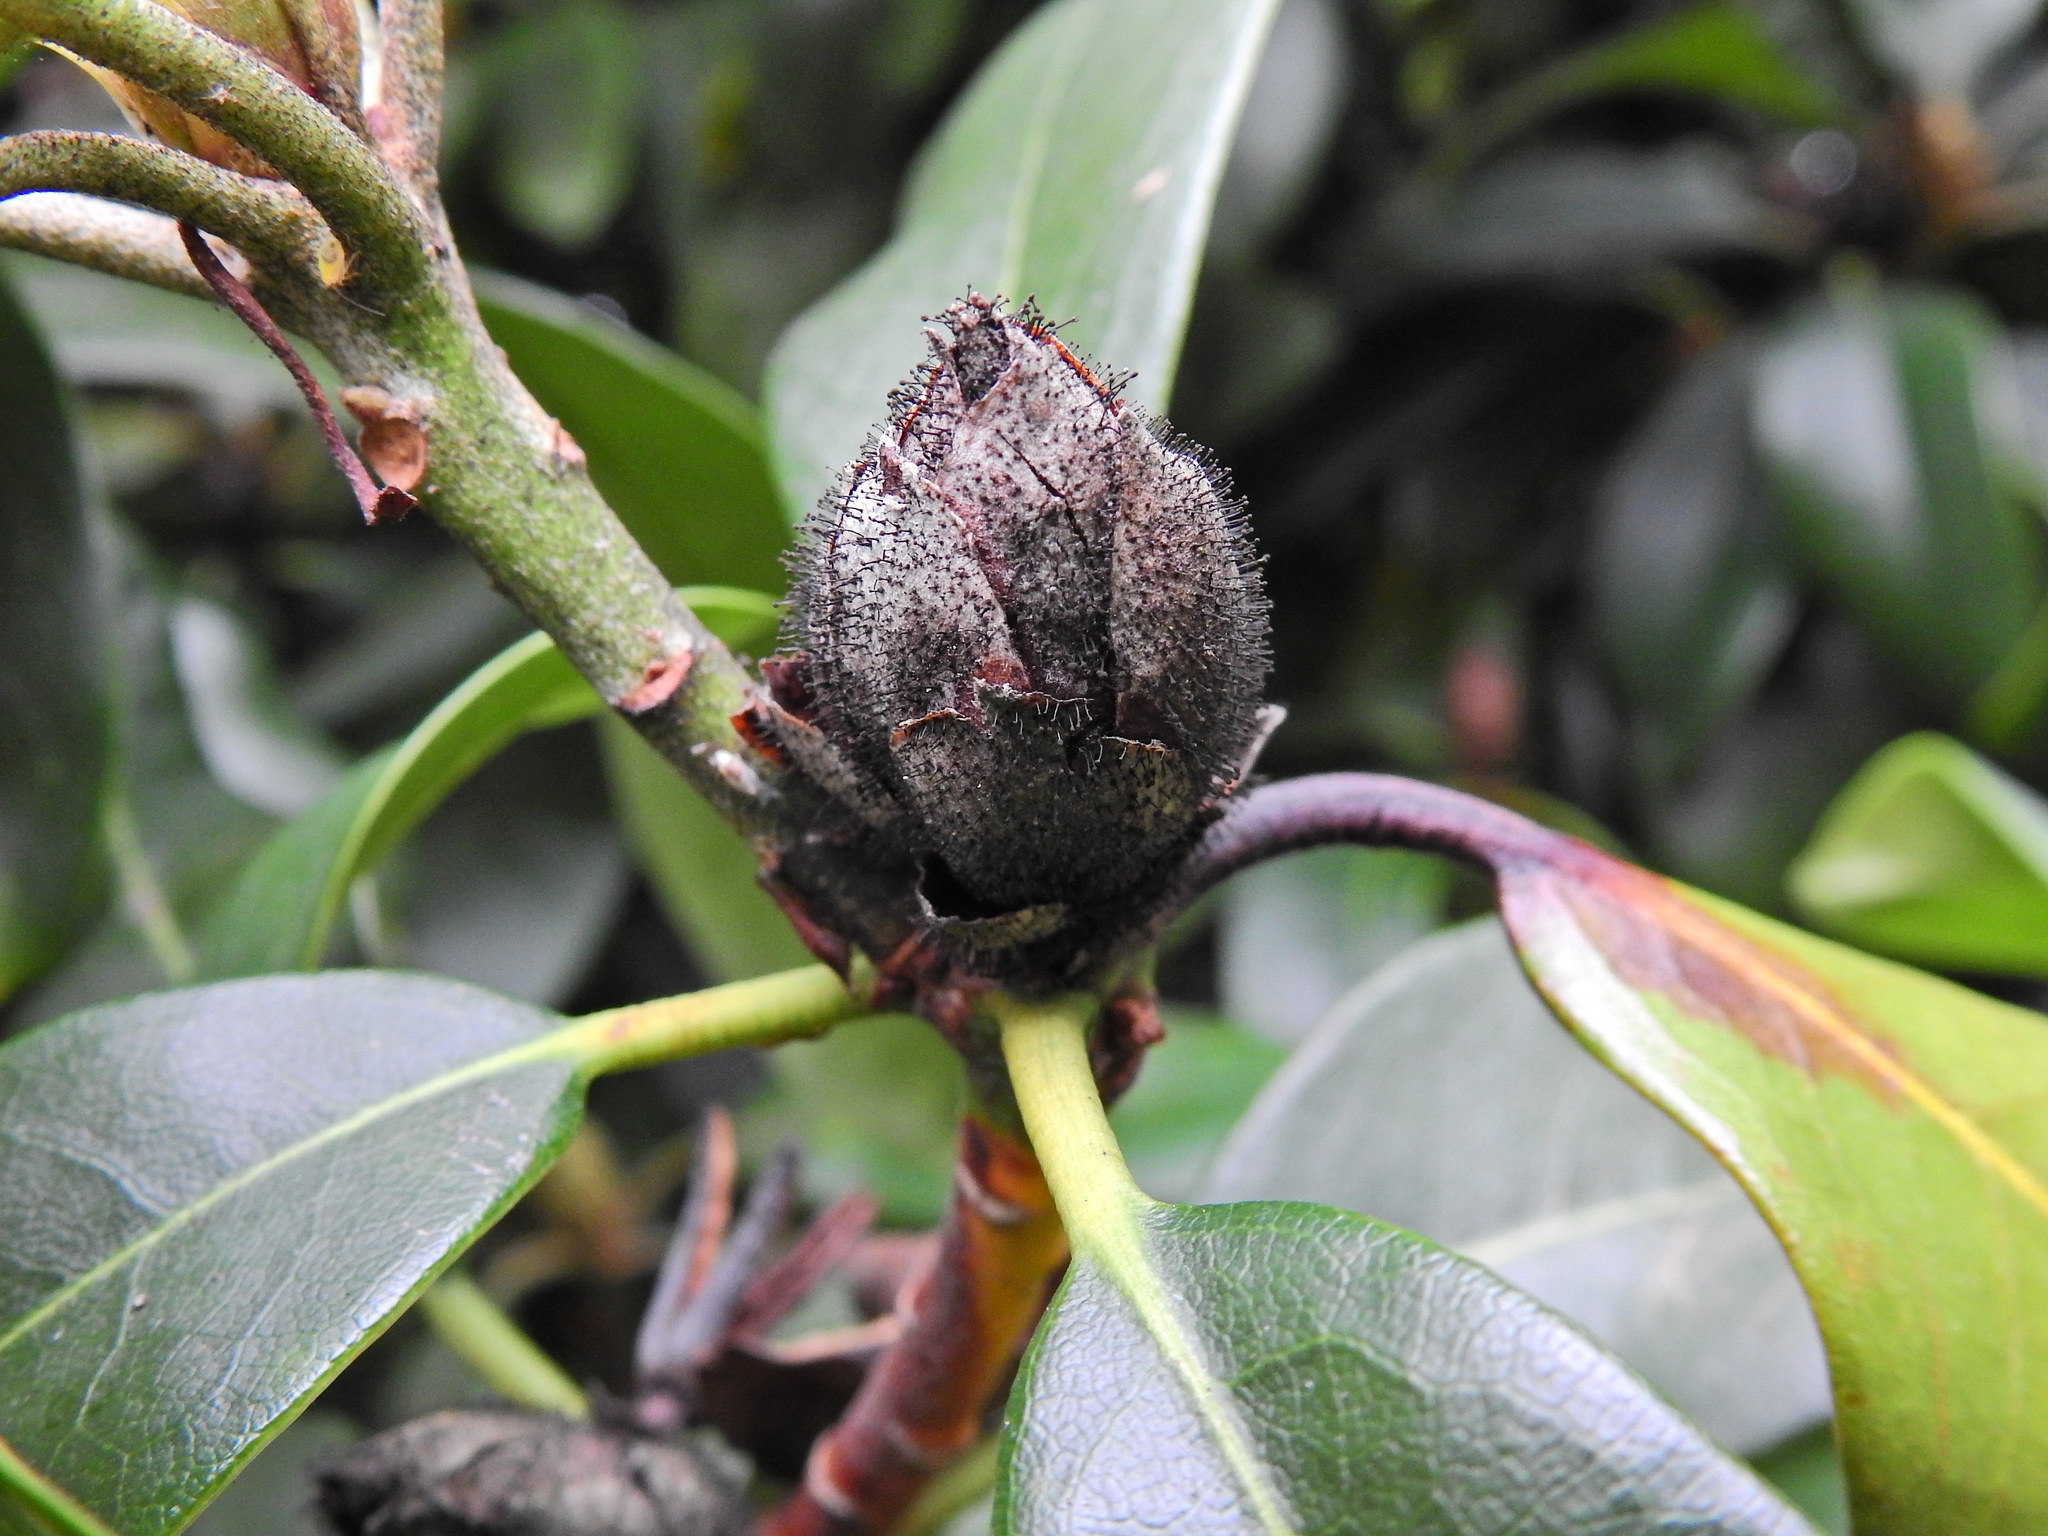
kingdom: Fungi
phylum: Ascomycota
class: Dothideomycetes
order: Pleosporales
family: Melanommataceae
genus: Seifertia
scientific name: Seifertia azaleae
